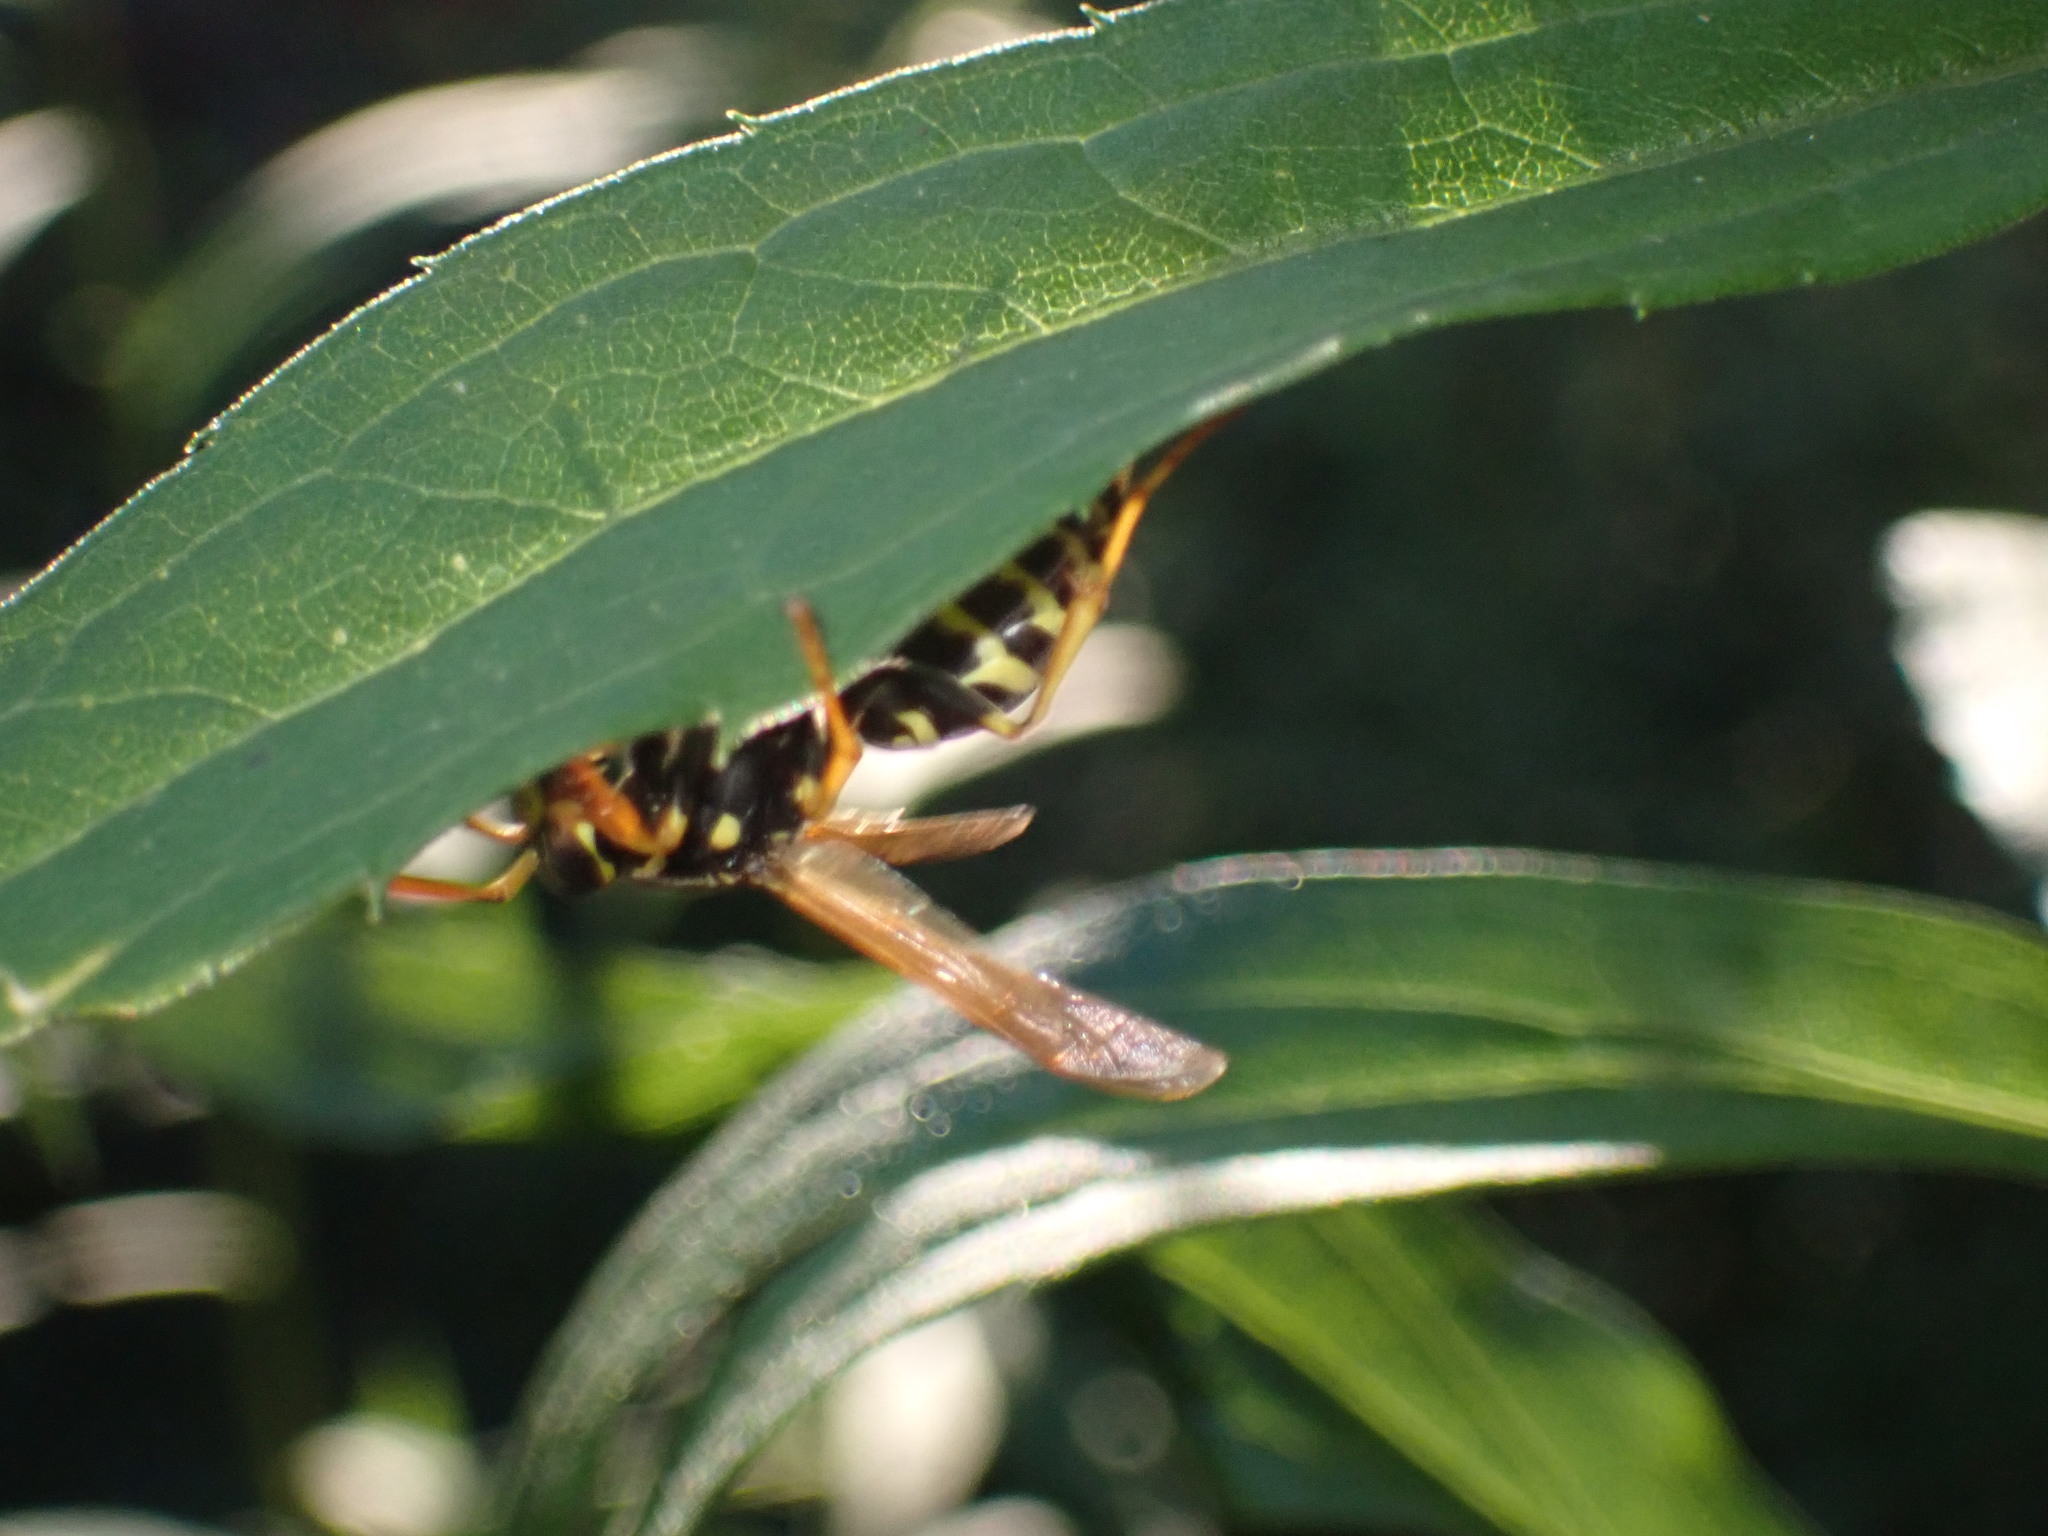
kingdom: Animalia
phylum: Arthropoda
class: Insecta
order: Hymenoptera
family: Eumenidae
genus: Polistes
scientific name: Polistes dominula
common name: Paper wasp
